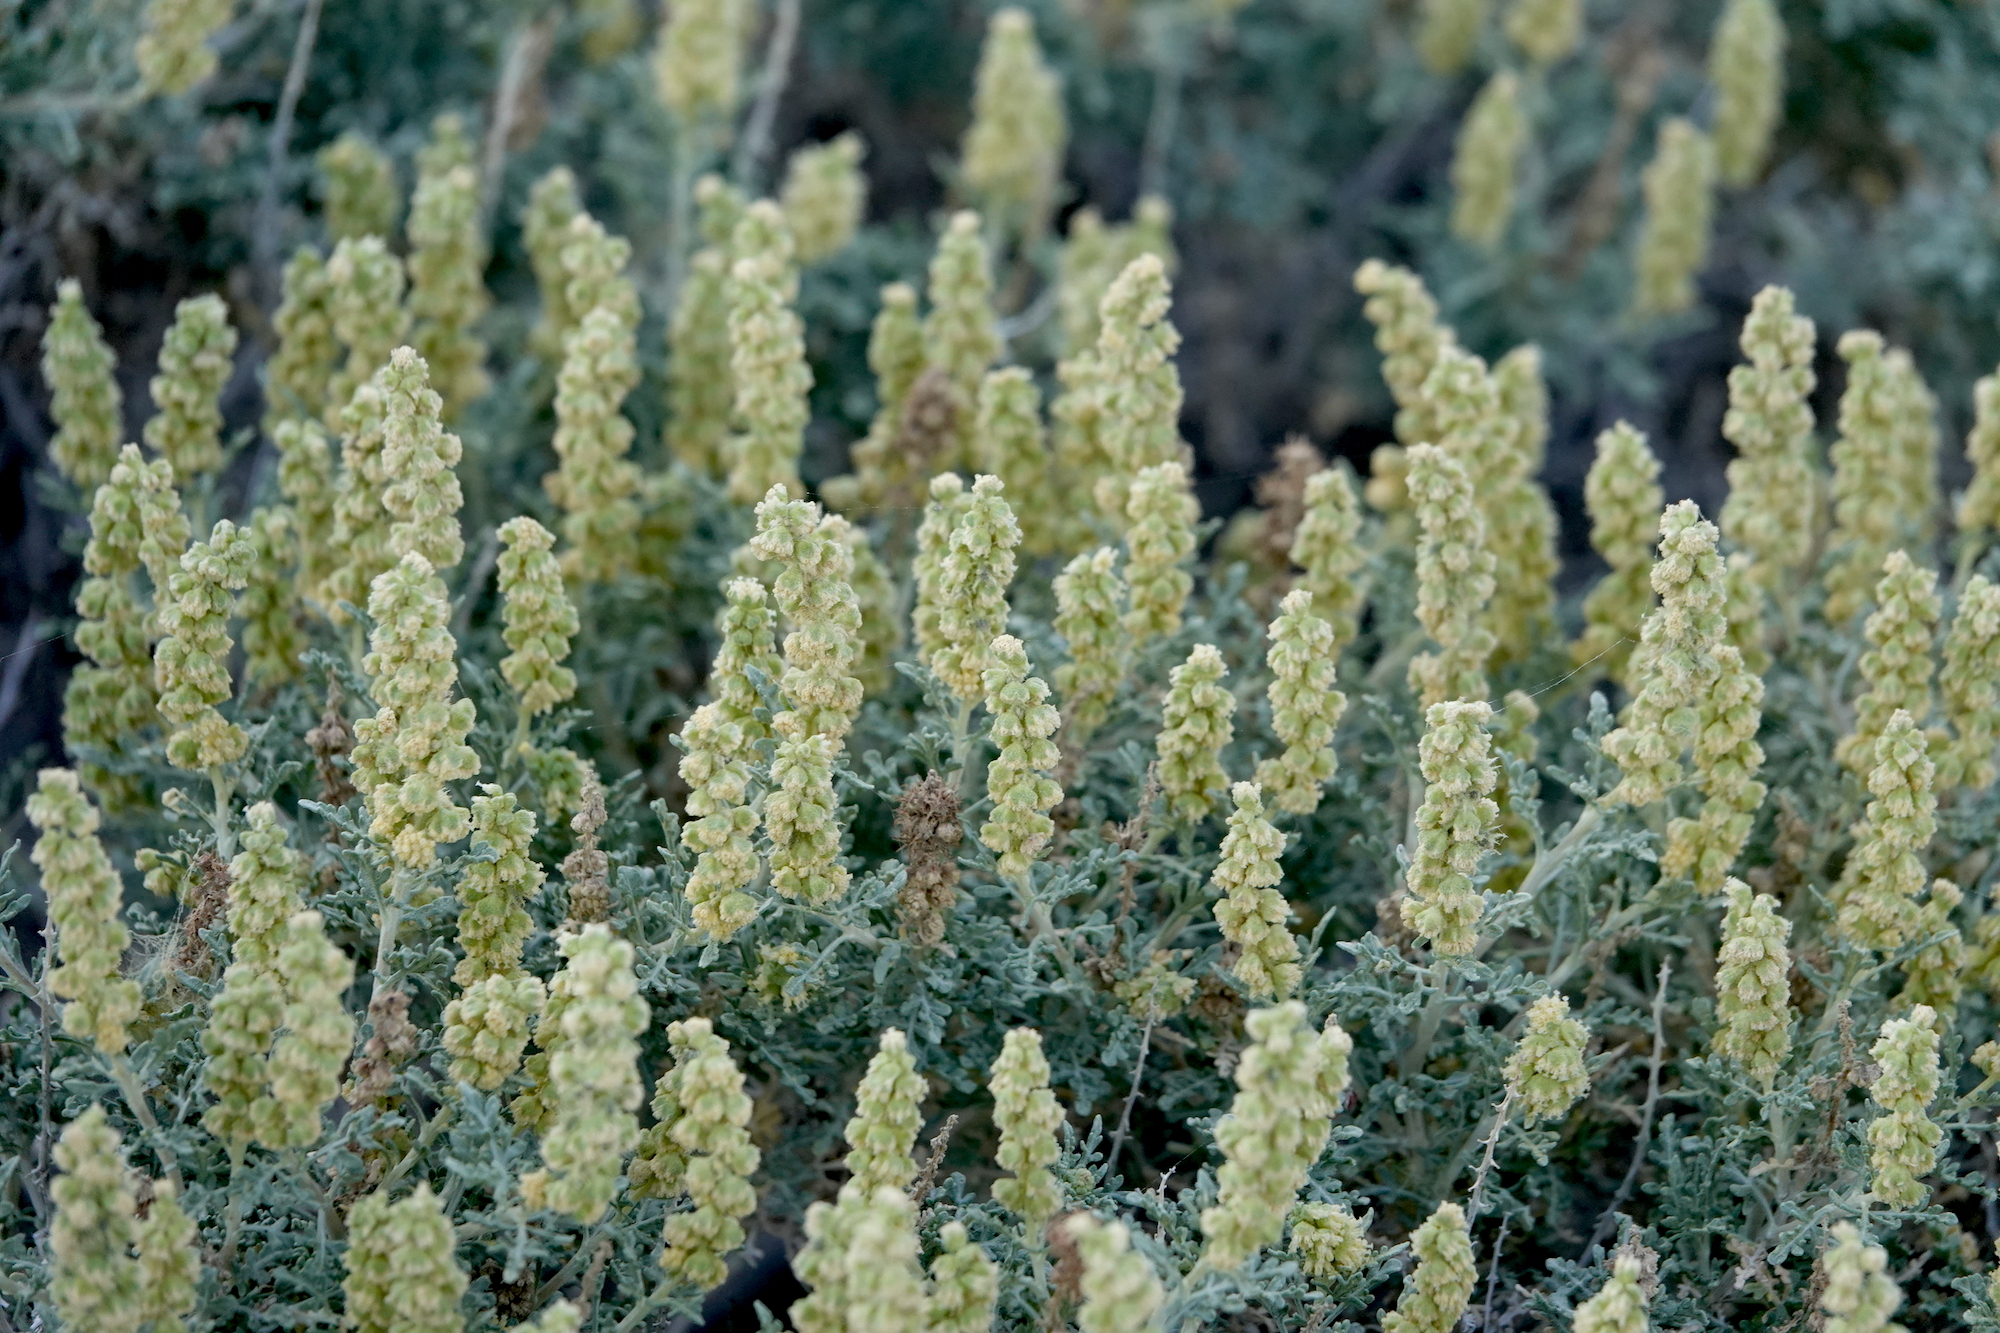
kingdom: Plantae
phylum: Tracheophyta
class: Magnoliopsida
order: Asterales
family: Asteraceae
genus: Ambrosia
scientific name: Ambrosia dumosa
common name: Bur-sage
